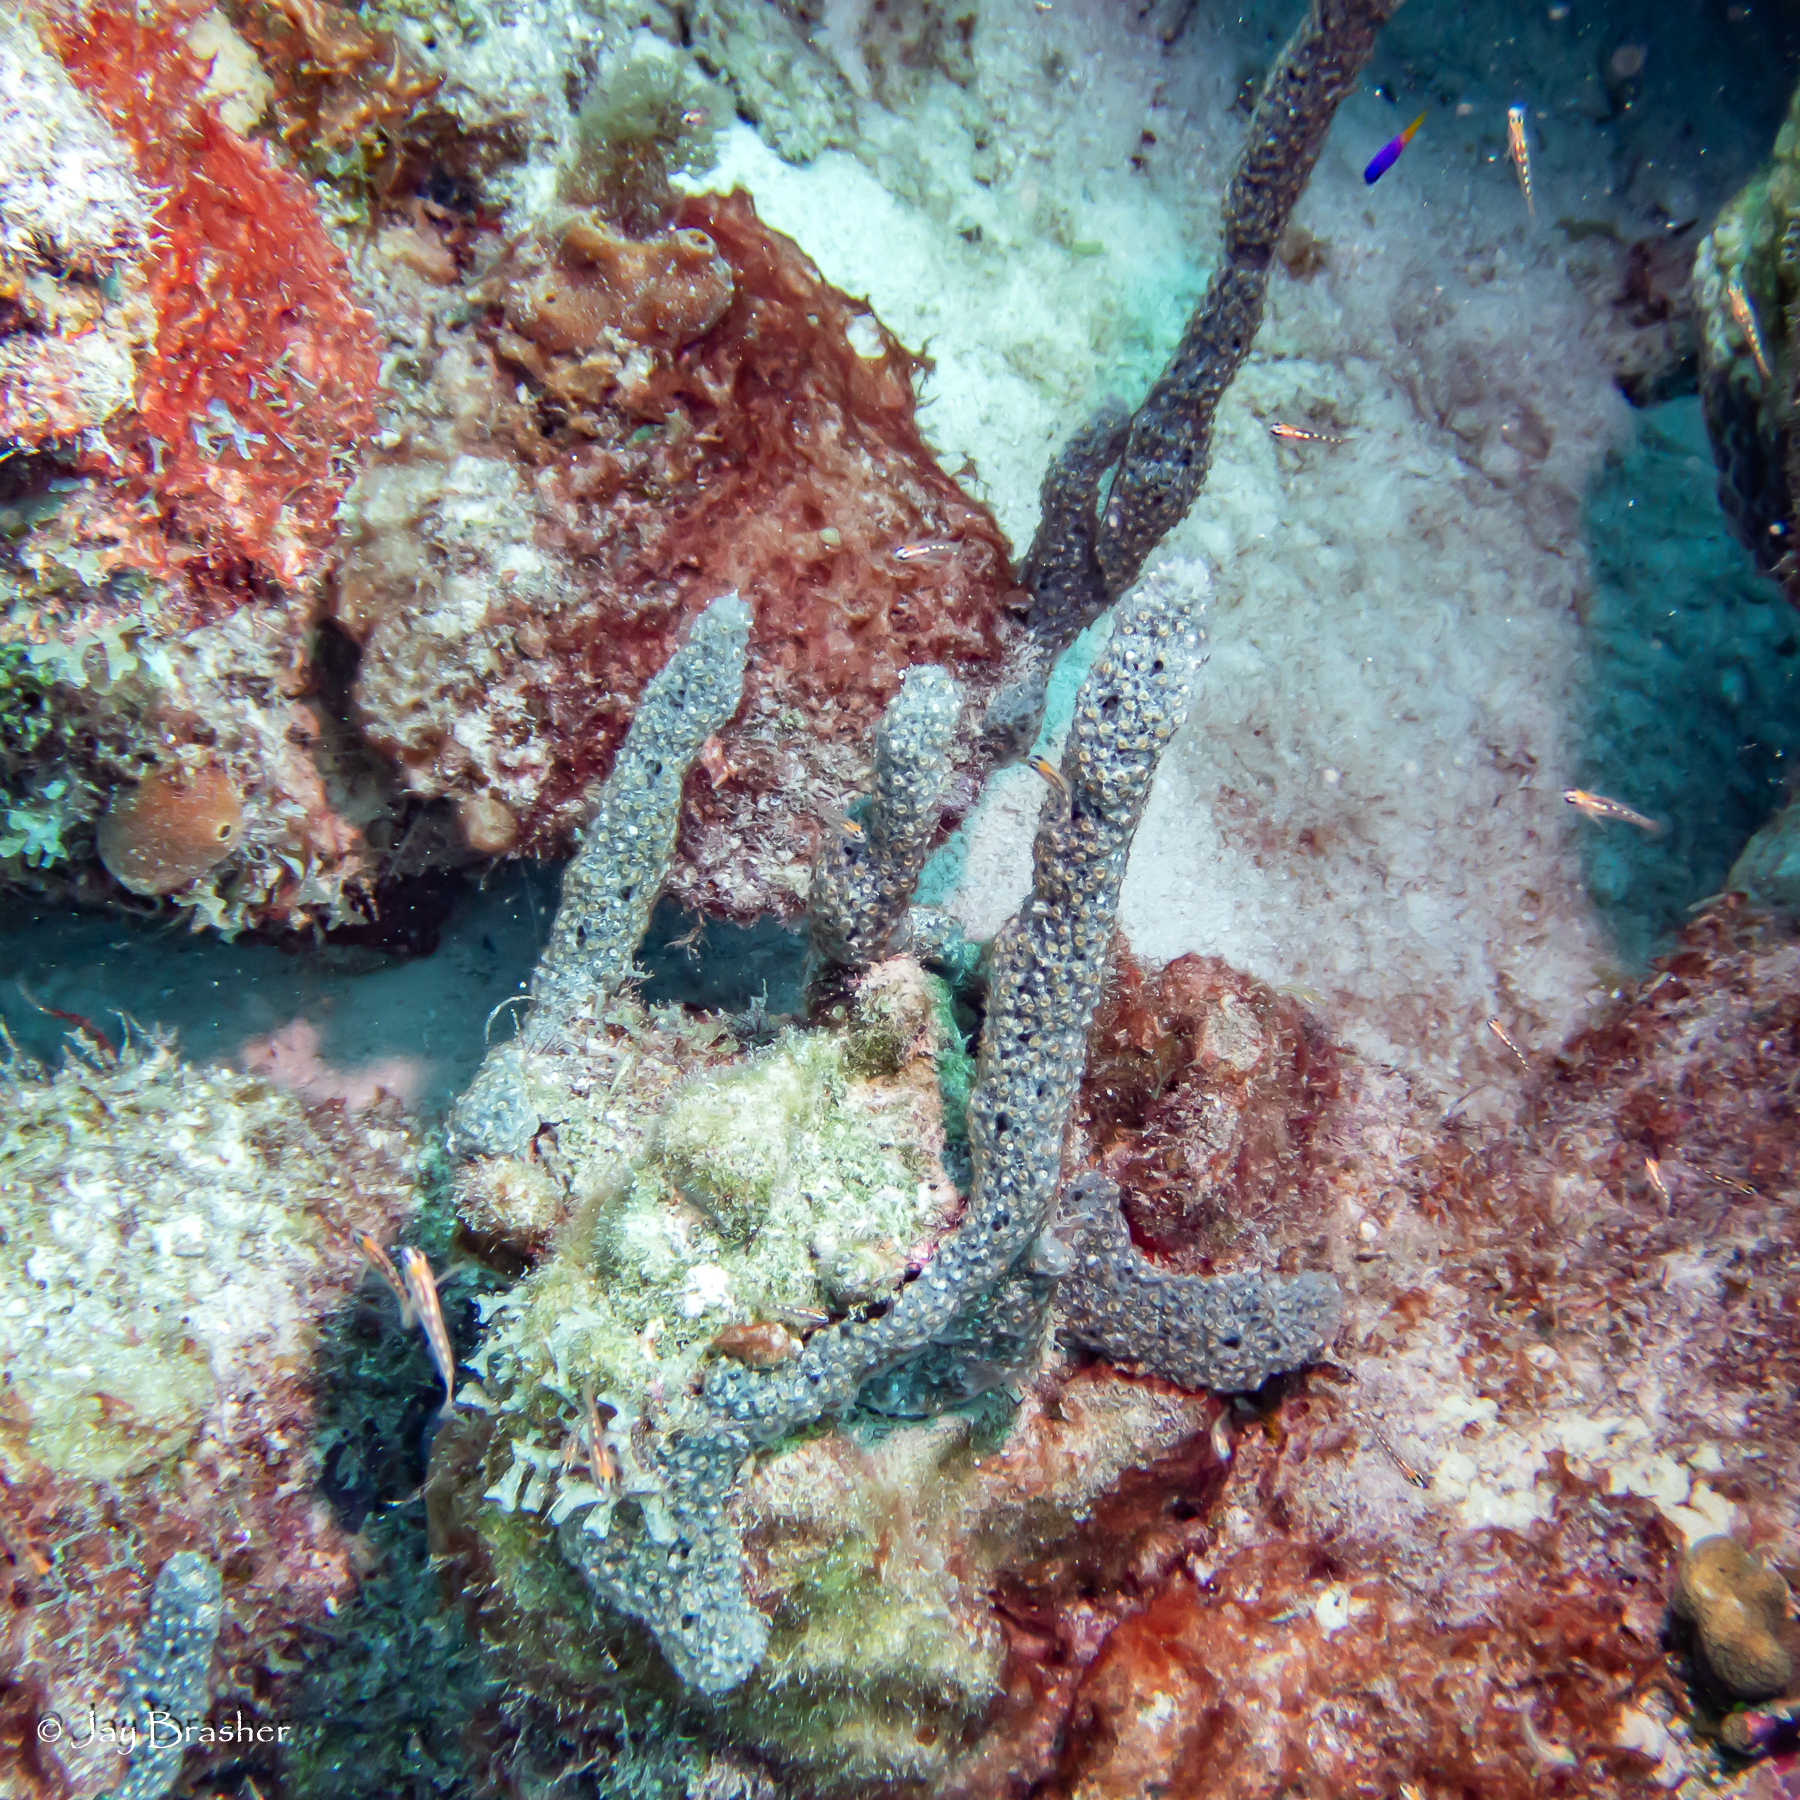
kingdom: Animalia
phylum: Porifera
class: Demospongiae
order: Haplosclerida
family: Niphatidae
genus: Niphates
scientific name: Niphates erecta
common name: Lavender rope sponge
